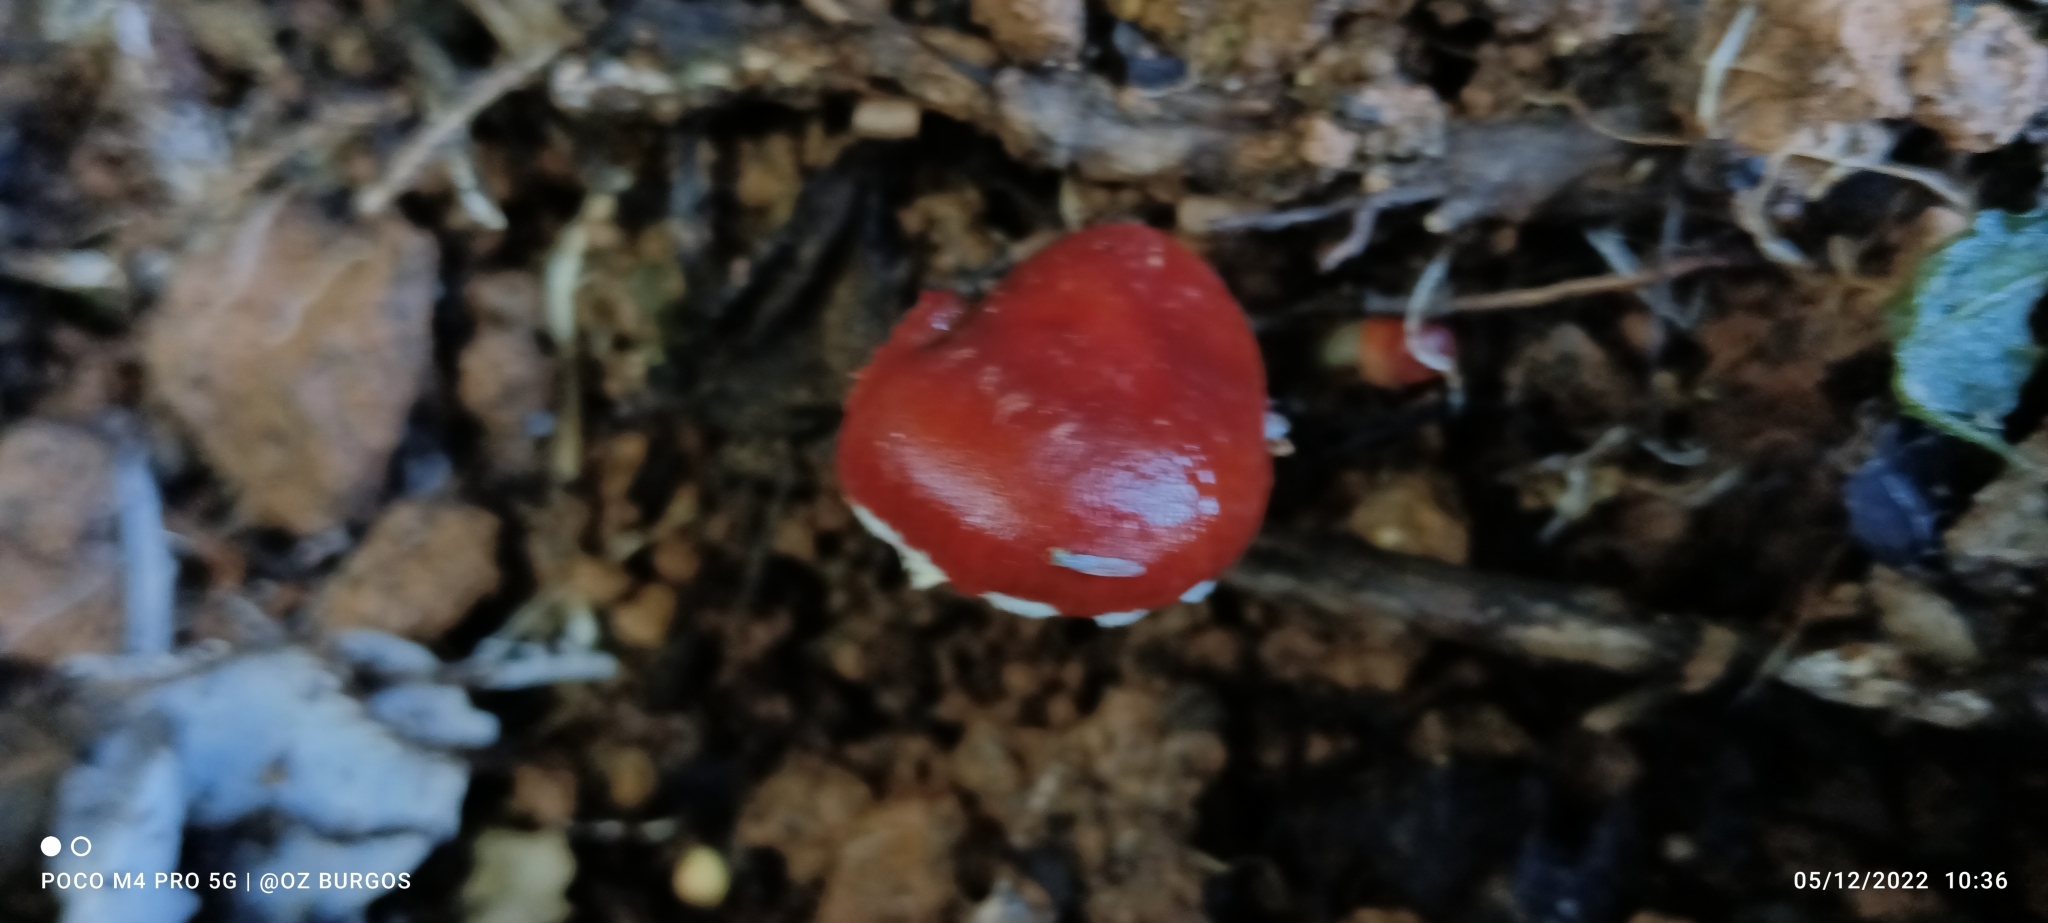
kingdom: Fungi
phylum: Basidiomycota
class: Agaricomycetes
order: Agaricales
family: Strophariaceae
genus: Leratiomyces
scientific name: Leratiomyces ceres
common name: Redlead roundhead
